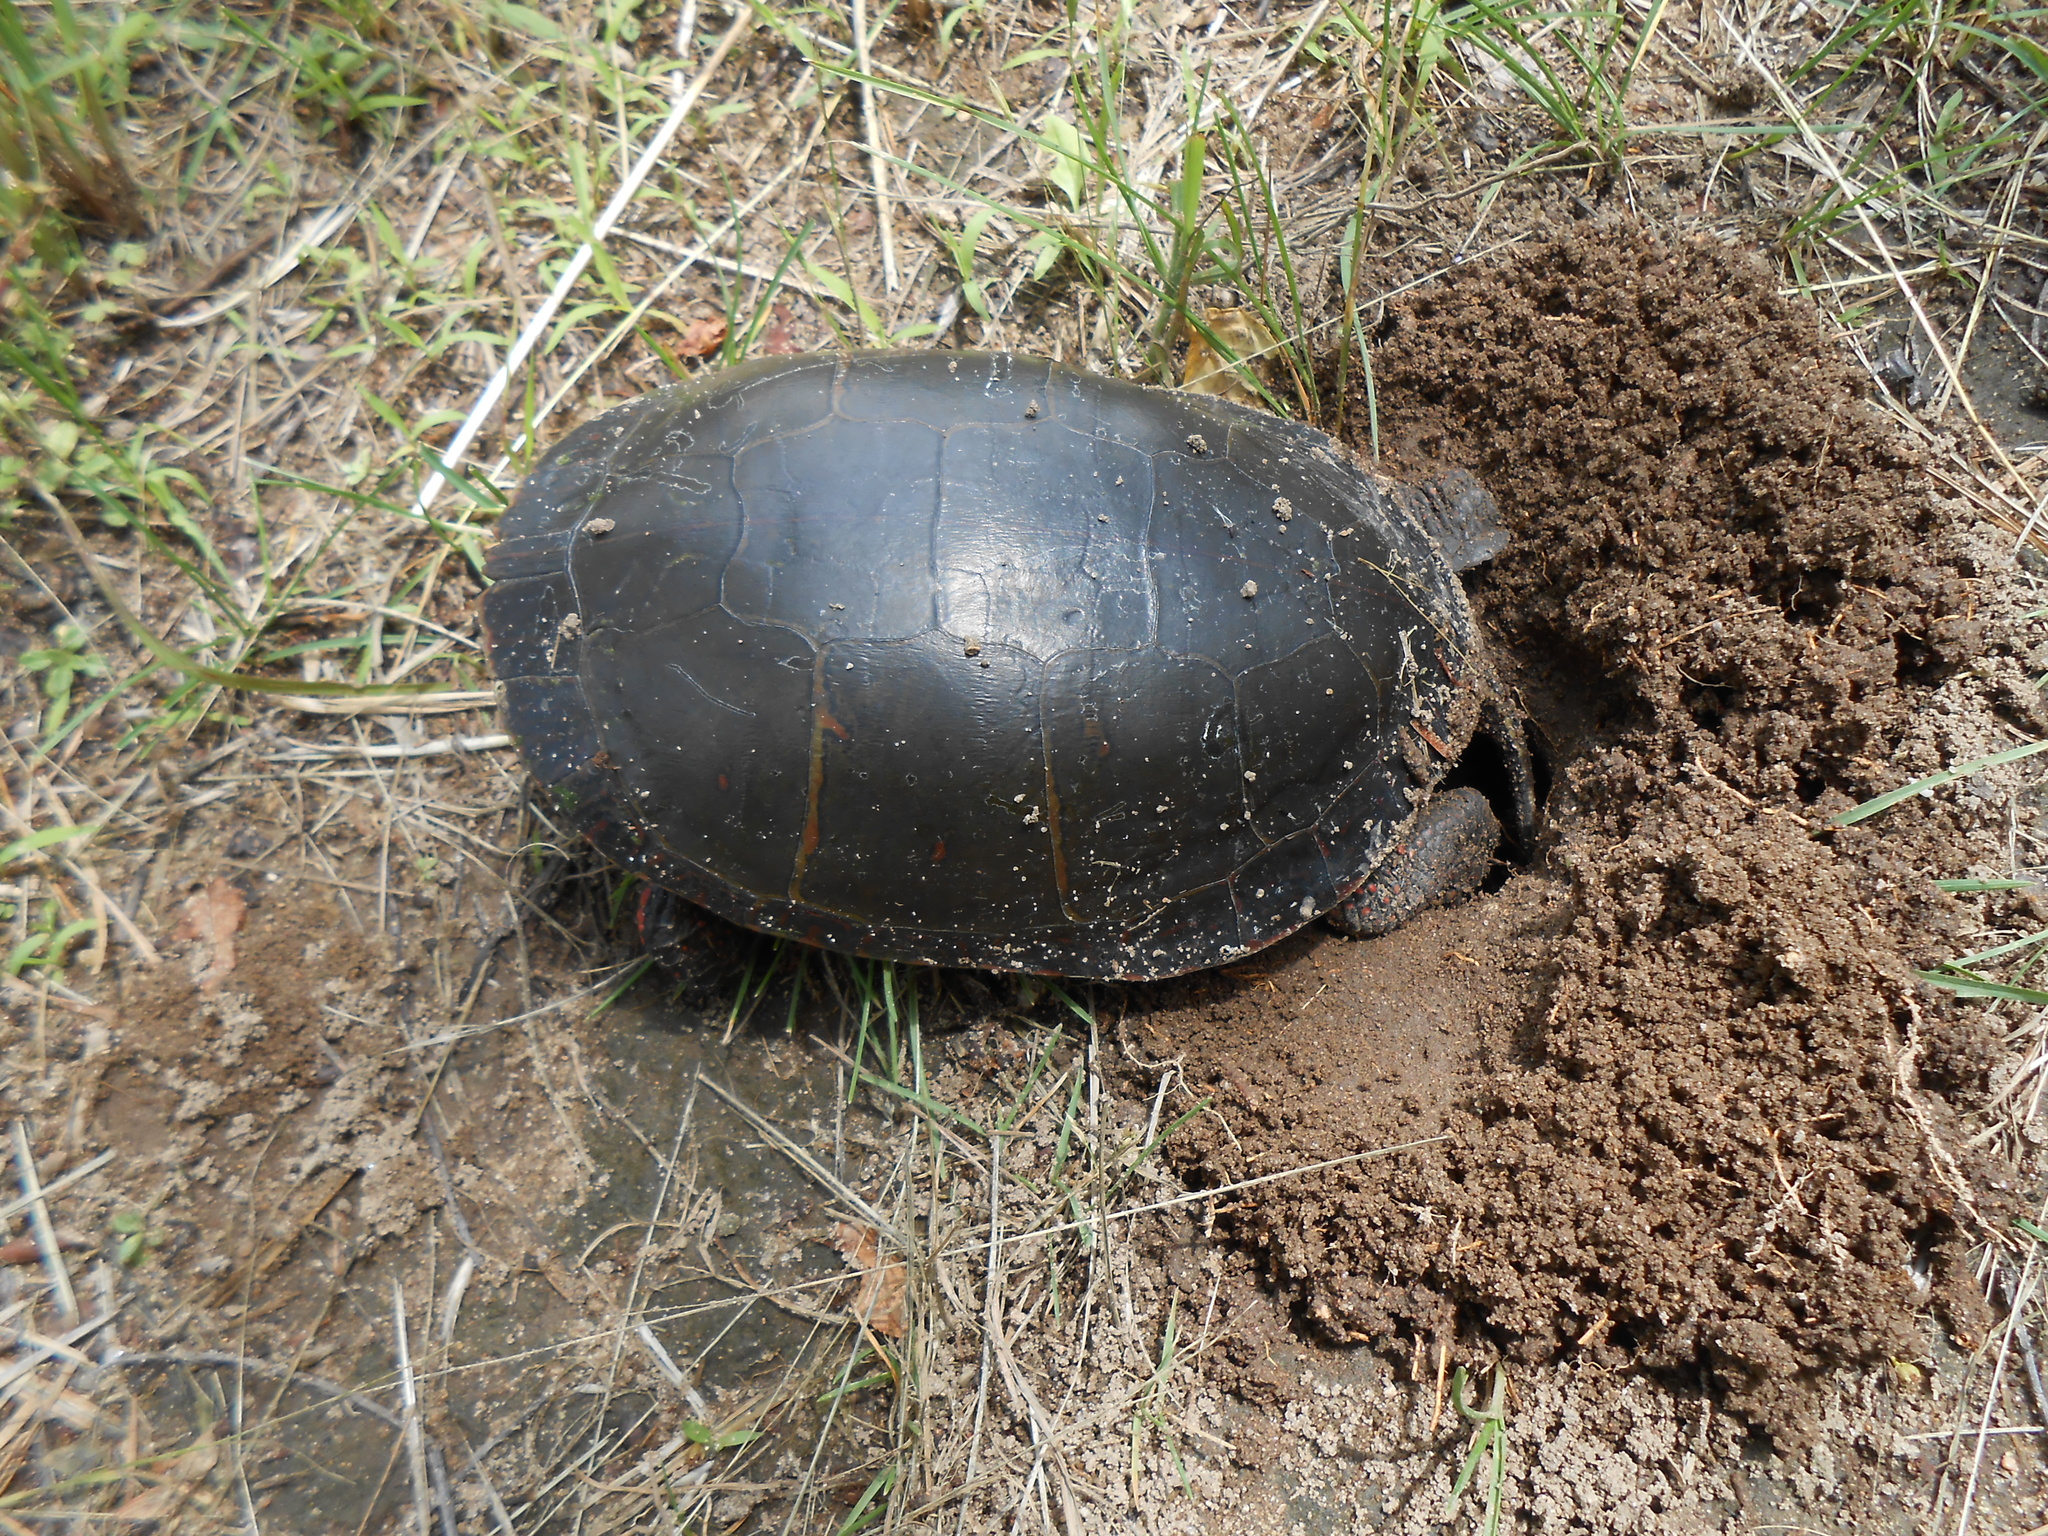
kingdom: Animalia
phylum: Chordata
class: Testudines
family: Emydidae
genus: Chrysemys
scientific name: Chrysemys picta
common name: Painted turtle
